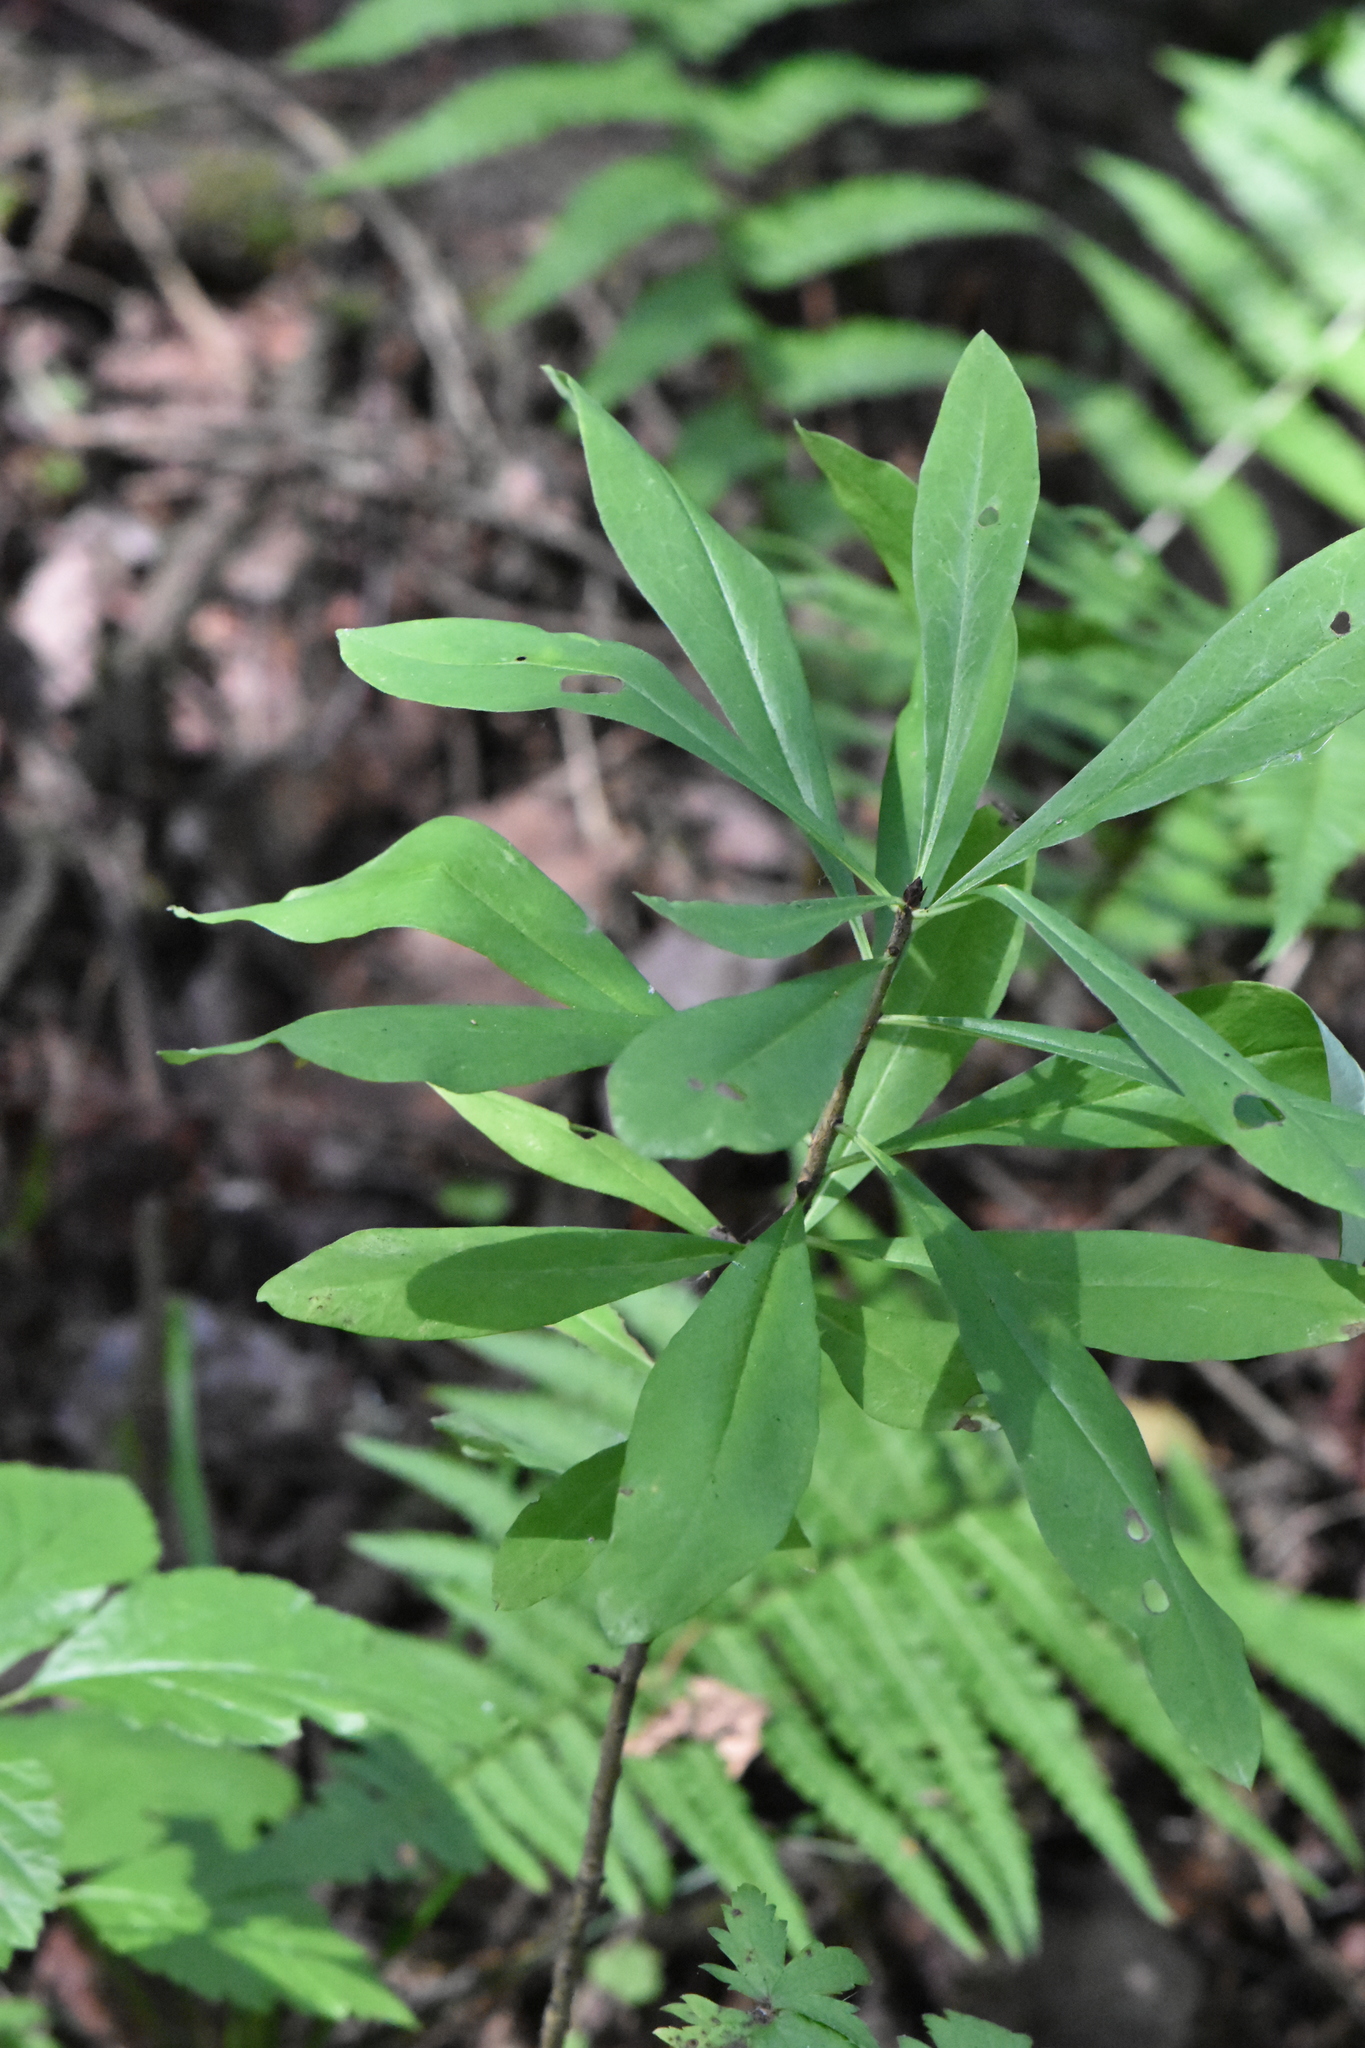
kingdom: Plantae
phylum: Tracheophyta
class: Magnoliopsida
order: Malvales
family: Thymelaeaceae
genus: Daphne
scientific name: Daphne mezereum
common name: Mezereon
